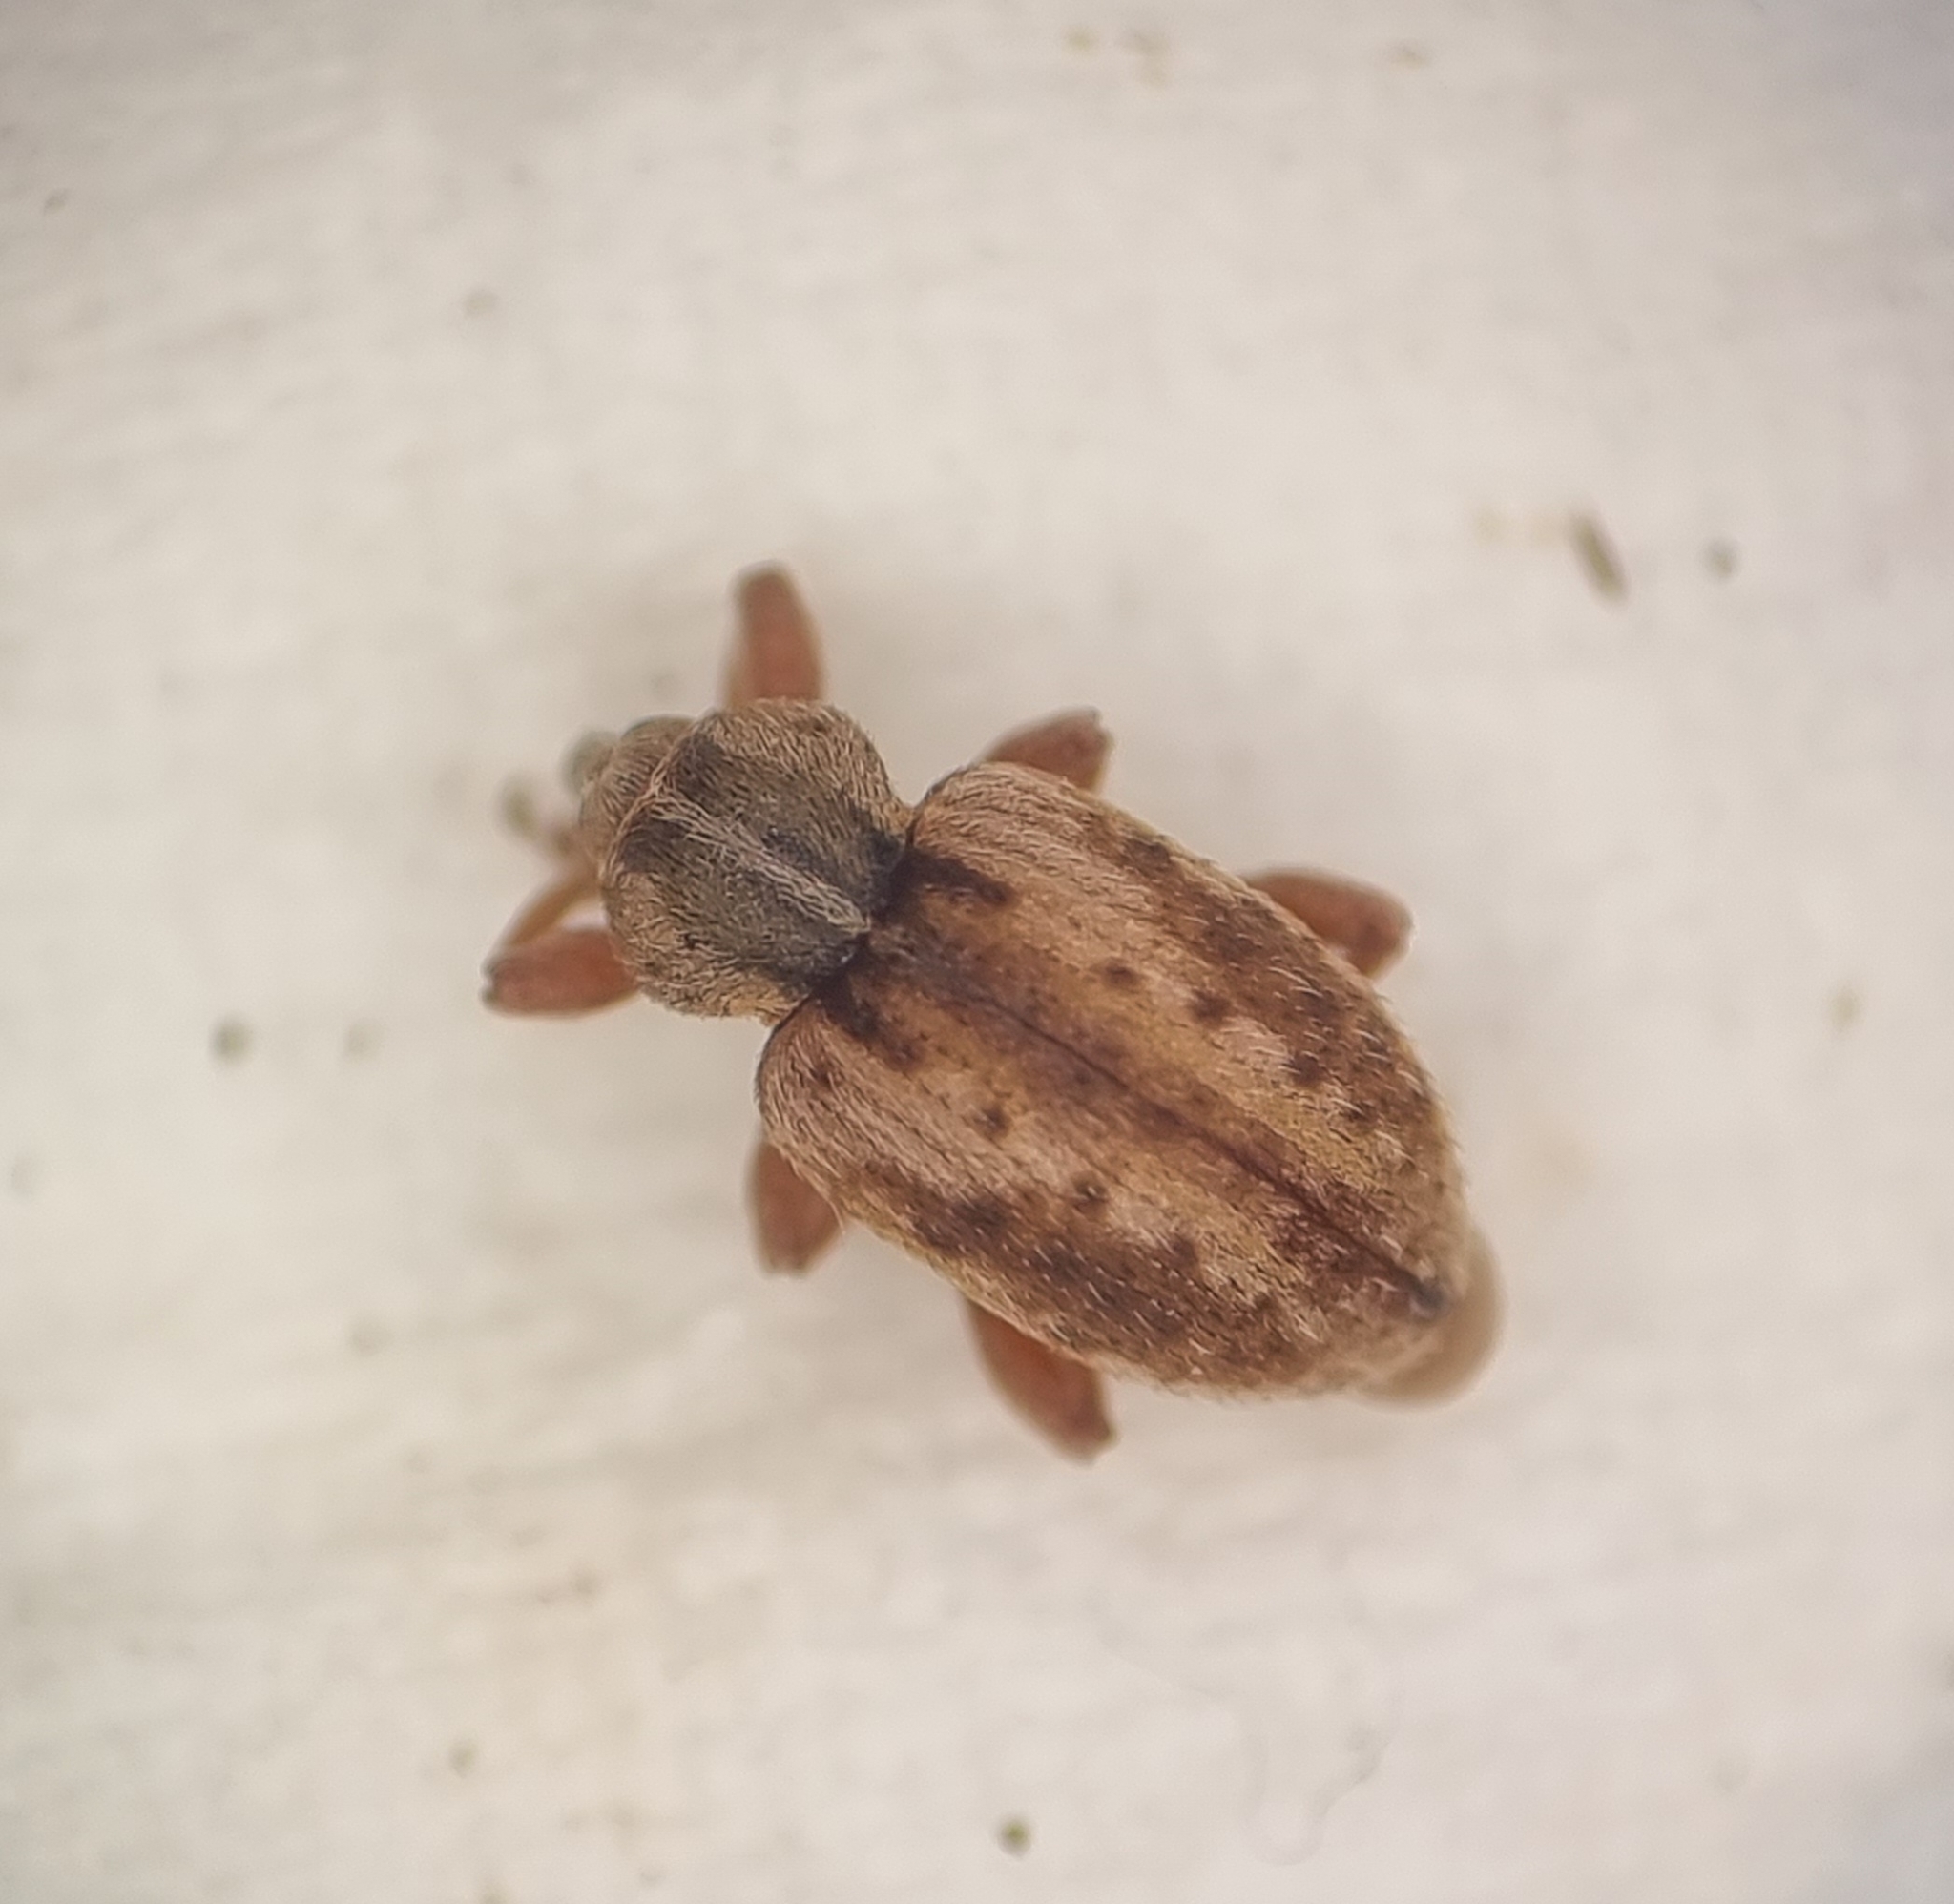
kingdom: Animalia
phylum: Arthropoda
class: Insecta
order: Coleoptera
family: Curculionidae
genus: Hypera
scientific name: Hypera plantaginis
